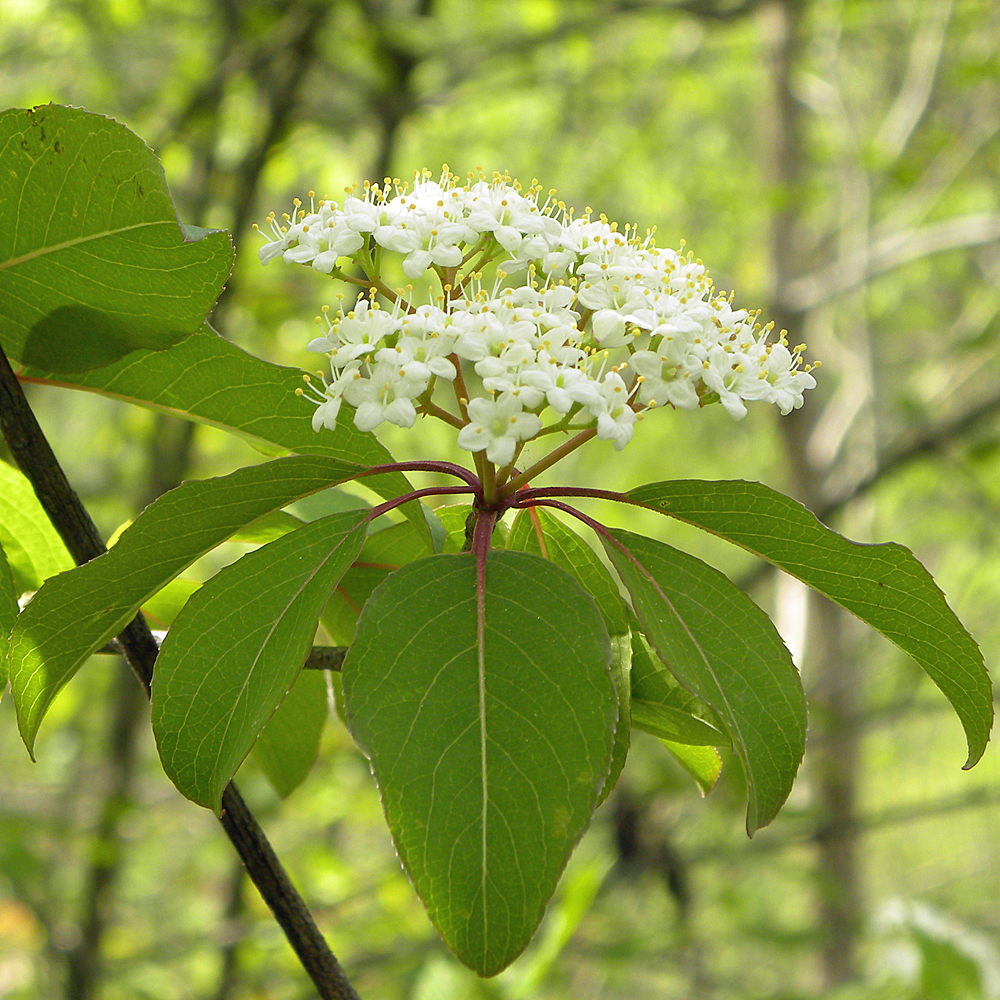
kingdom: Plantae
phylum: Tracheophyta
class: Magnoliopsida
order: Dipsacales
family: Viburnaceae
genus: Viburnum
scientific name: Viburnum prunifolium
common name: Black haw
